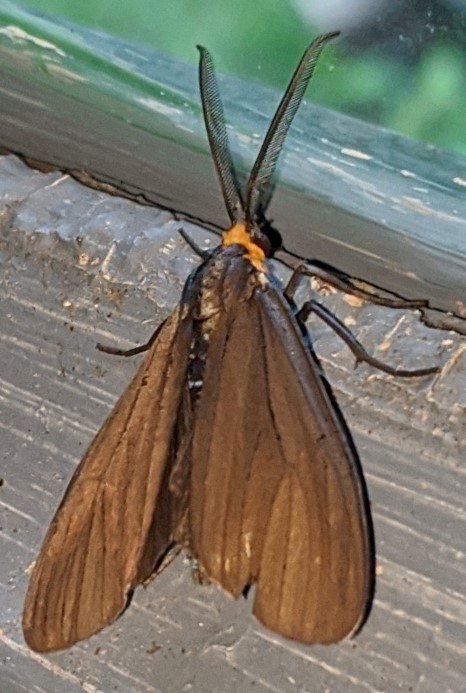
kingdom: Animalia
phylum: Arthropoda
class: Insecta
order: Lepidoptera
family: Erebidae
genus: Ctenucha
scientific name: Ctenucha virginica
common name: Virginia ctenucha moth
